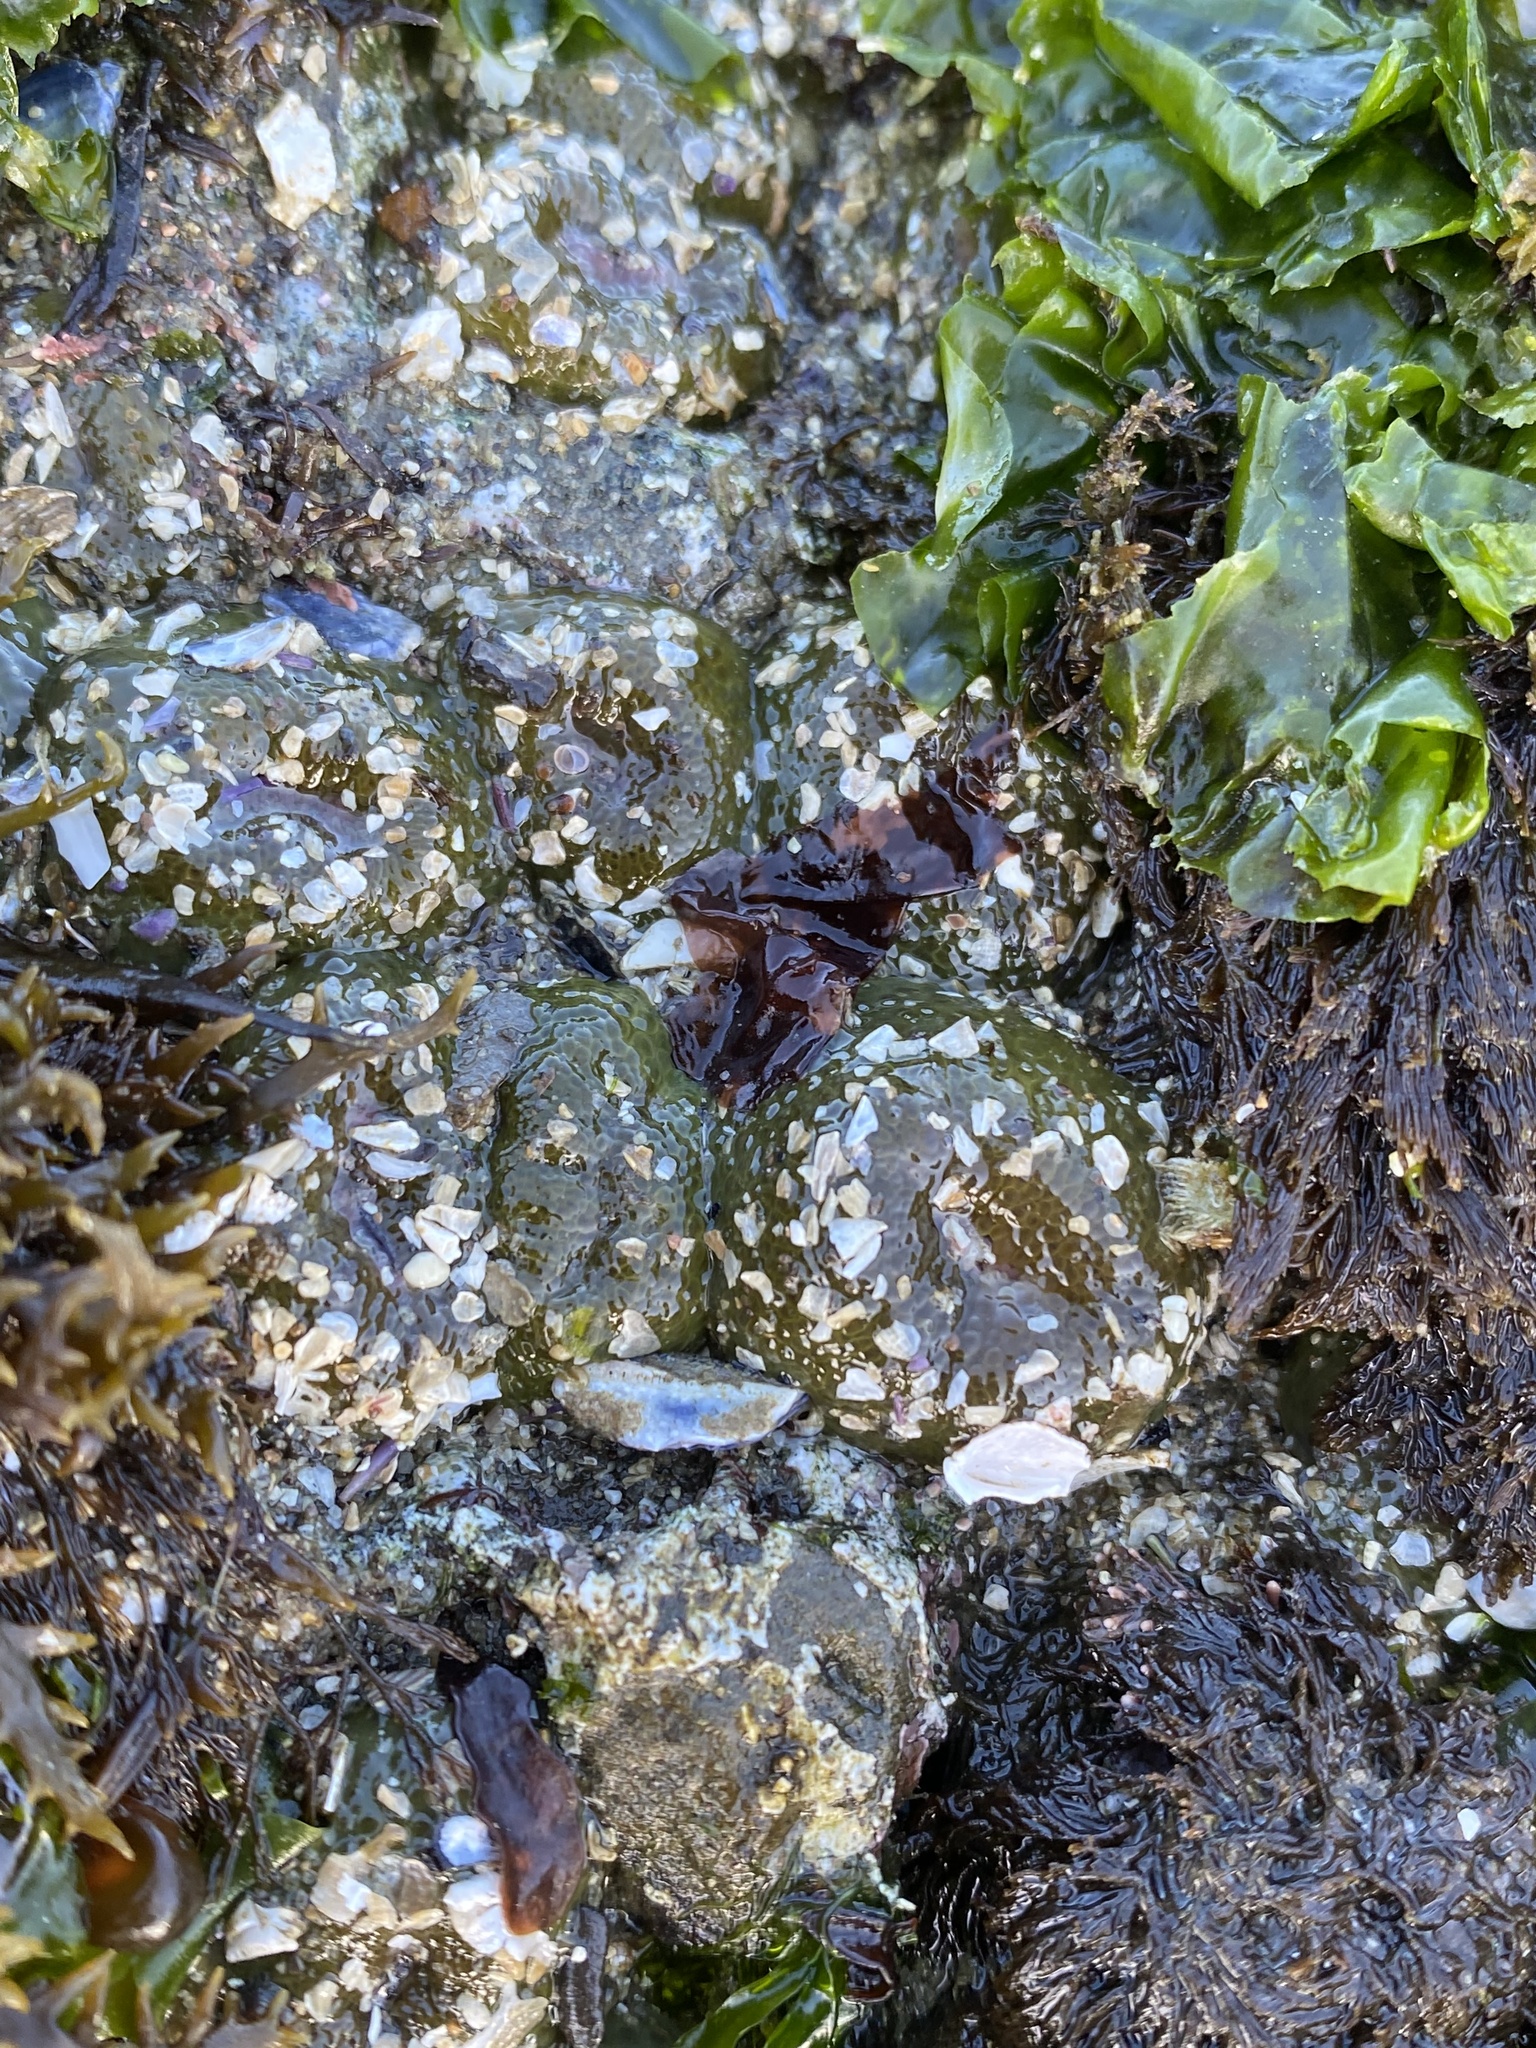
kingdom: Animalia
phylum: Cnidaria
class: Anthozoa
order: Actiniaria
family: Actiniidae
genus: Anthopleura
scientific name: Anthopleura elegantissima
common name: Clonal anemone
